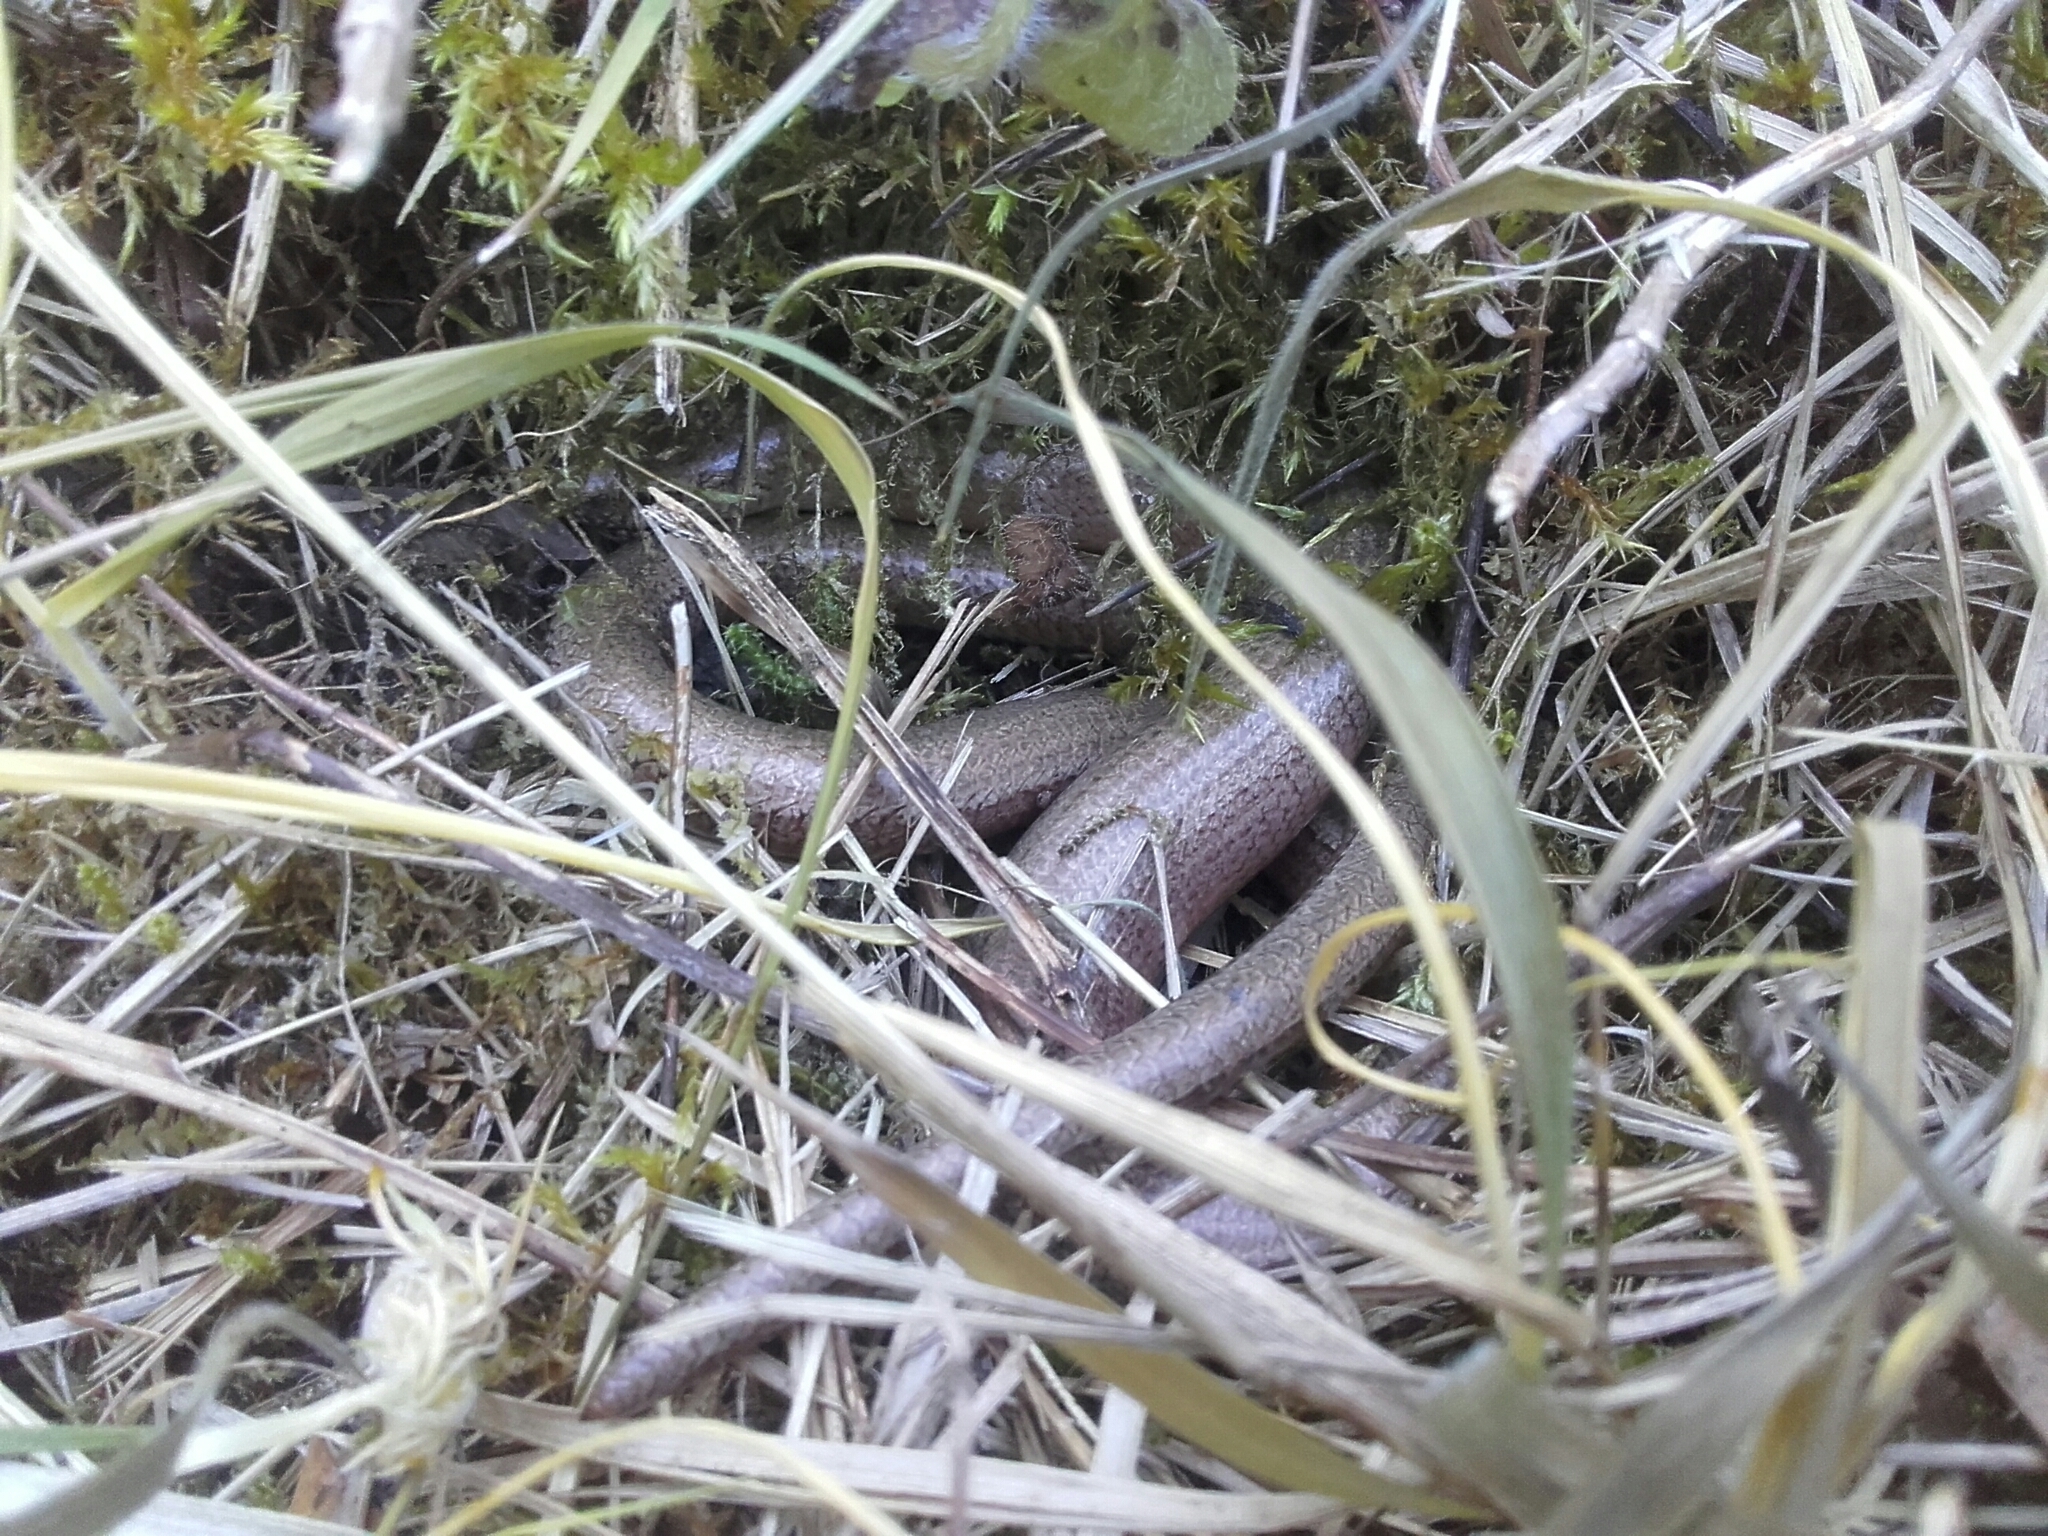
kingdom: Animalia
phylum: Chordata
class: Squamata
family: Anguidae
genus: Anguis
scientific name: Anguis fragilis
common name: Slow worm
